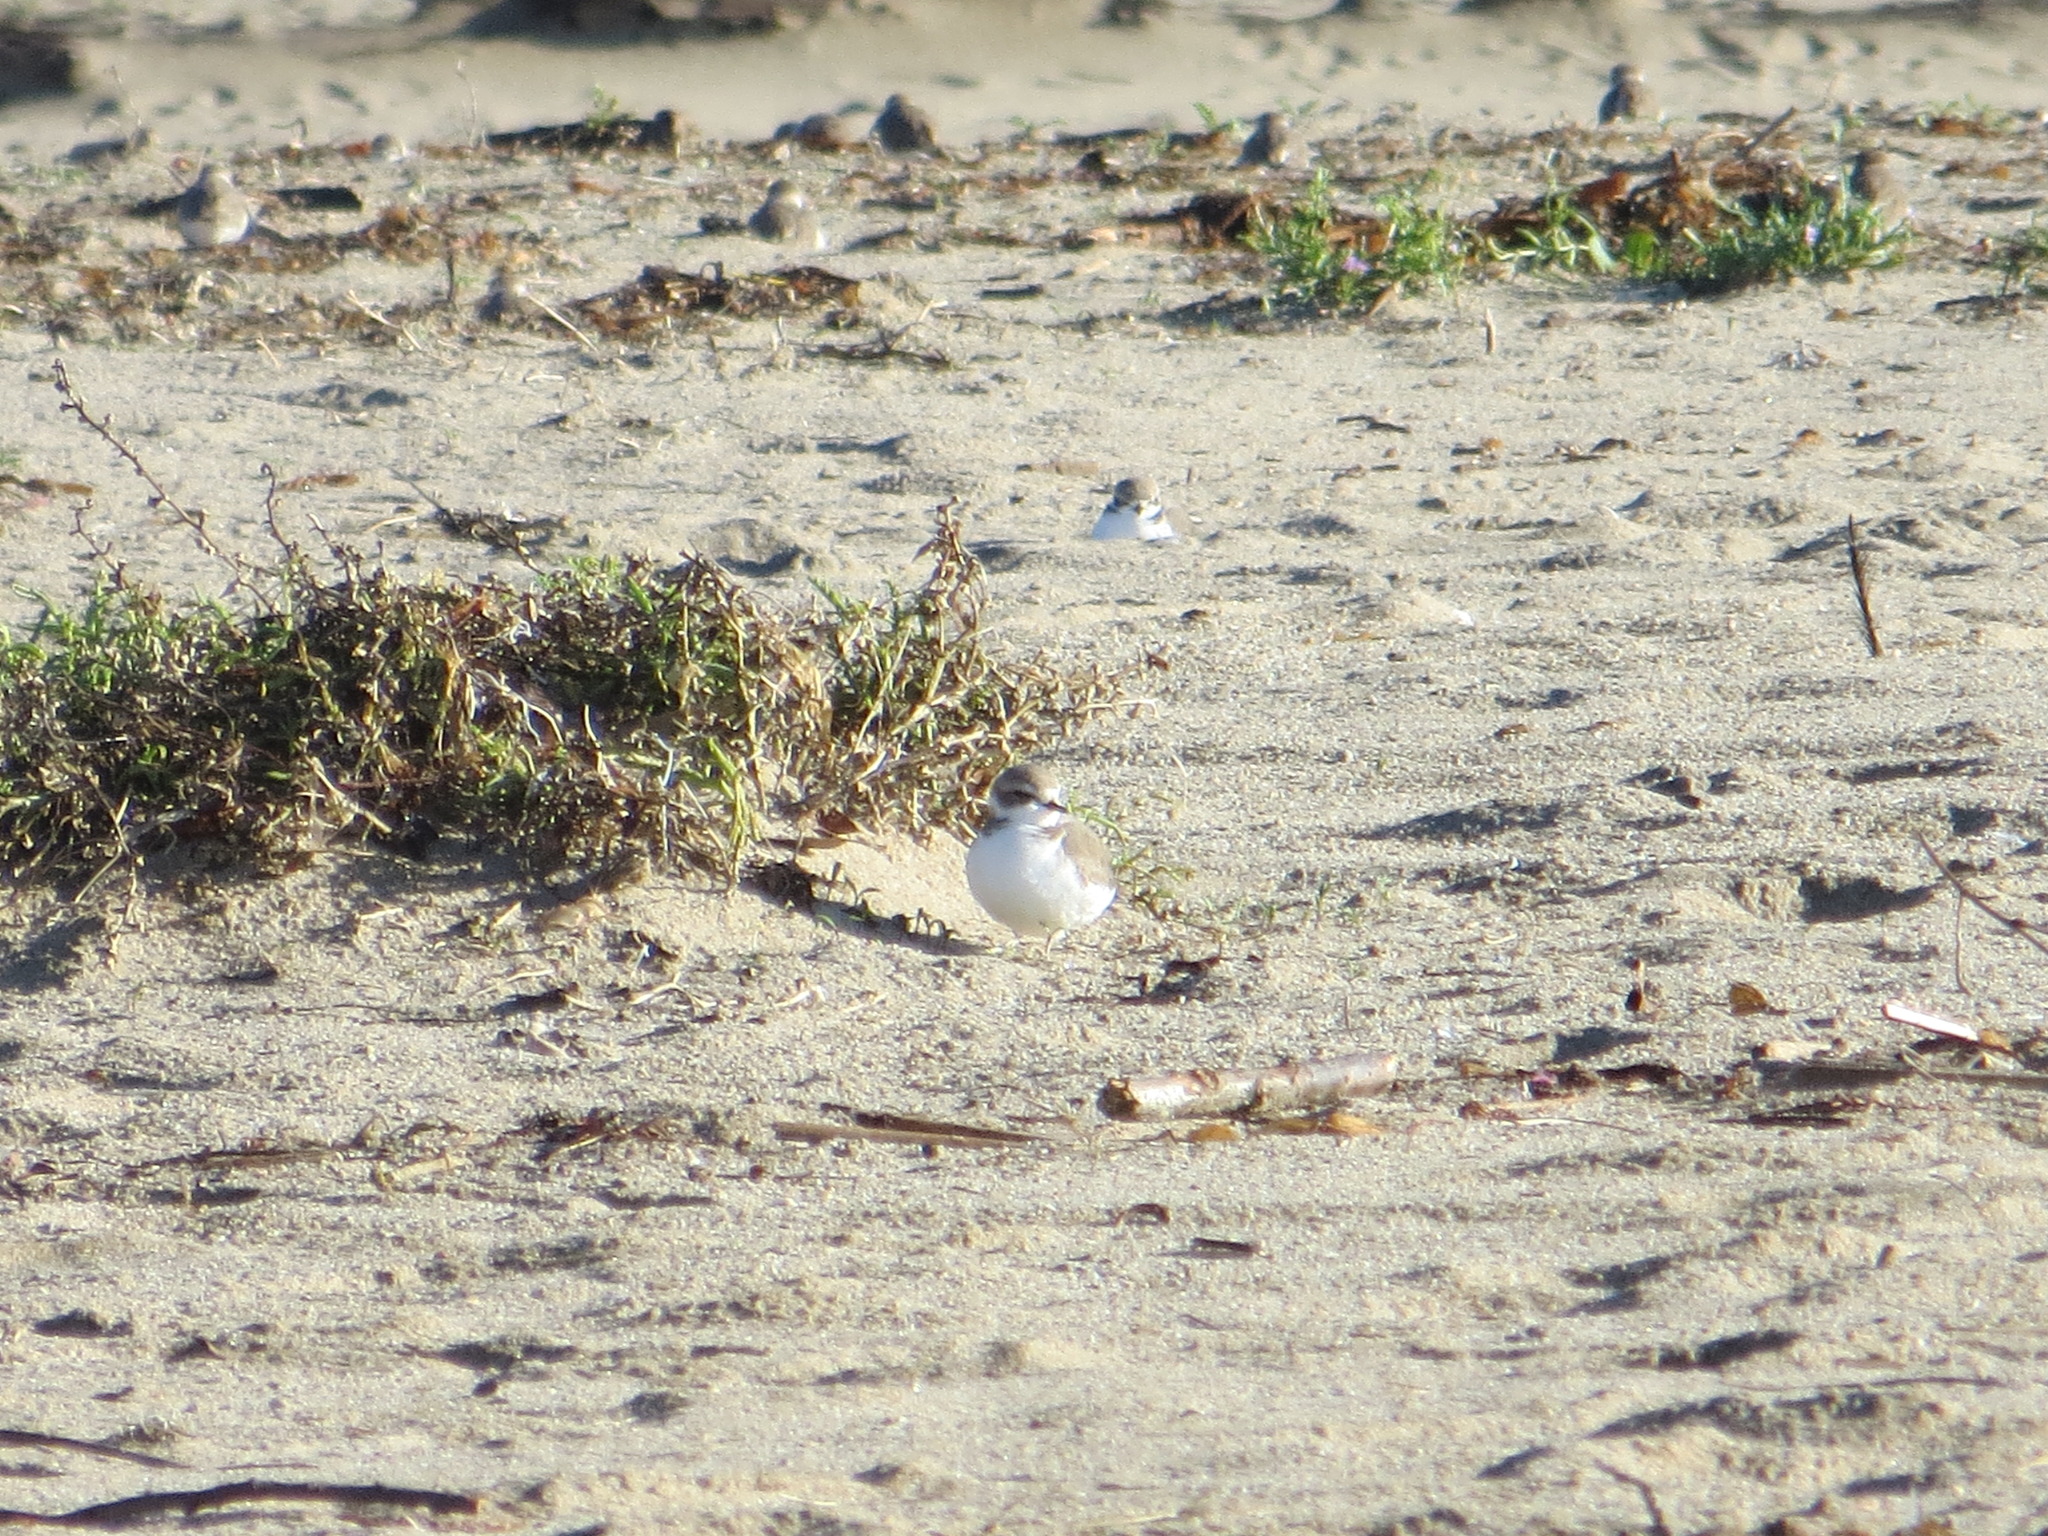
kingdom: Animalia
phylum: Chordata
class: Aves
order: Charadriiformes
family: Charadriidae
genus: Anarhynchus
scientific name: Anarhynchus
